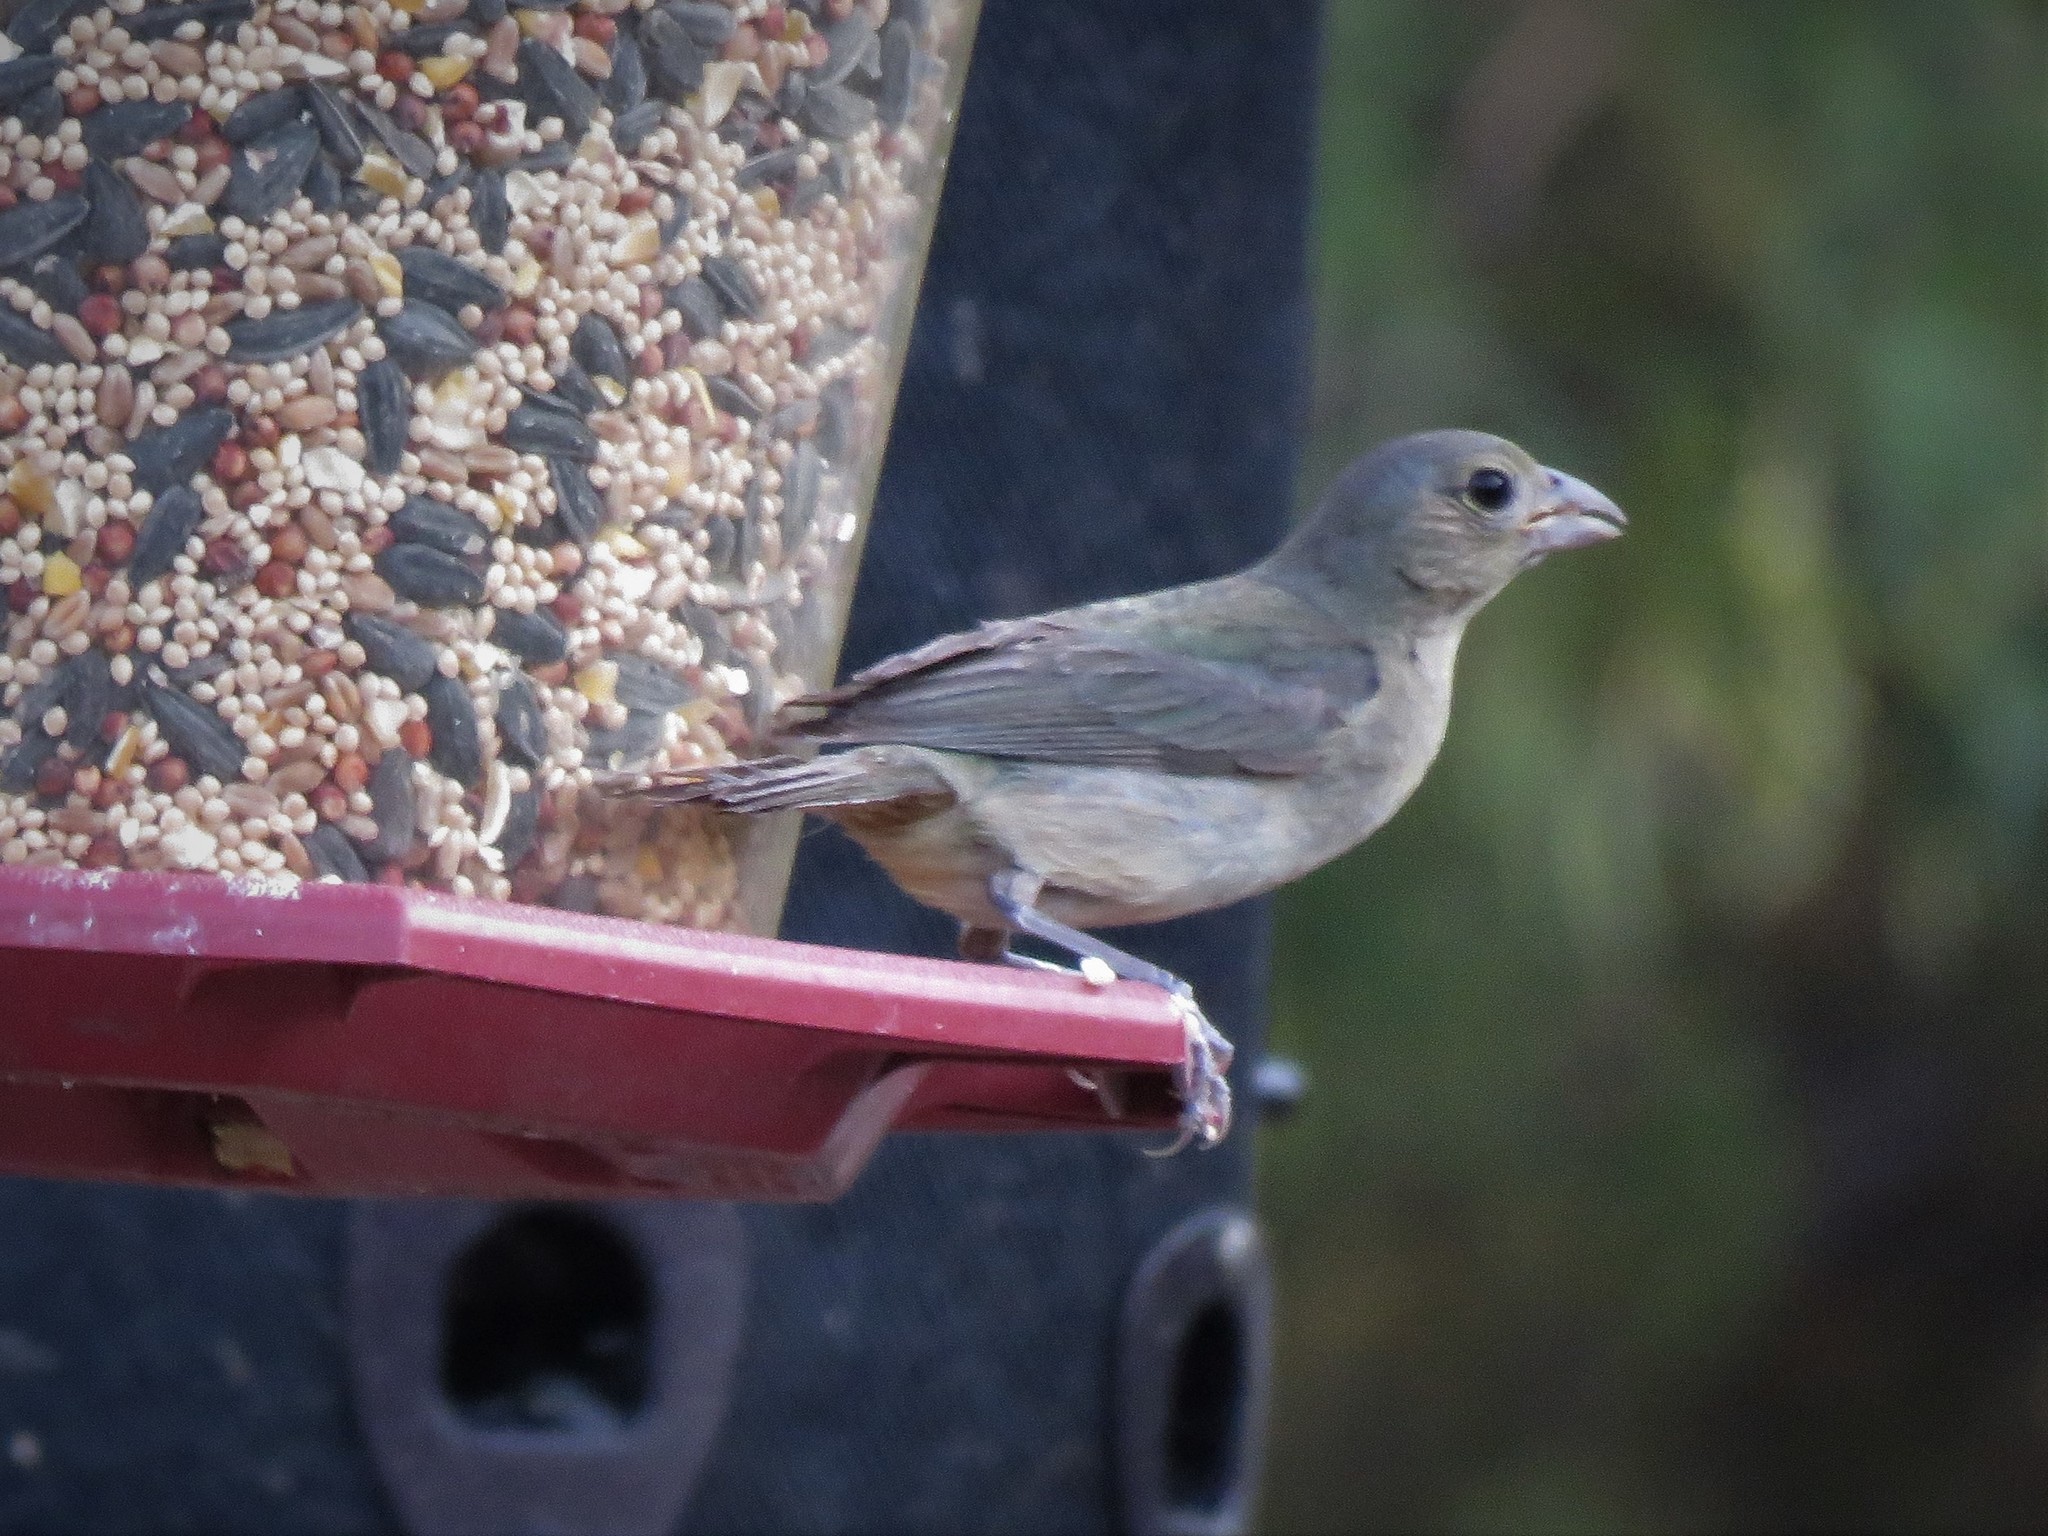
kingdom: Animalia
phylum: Chordata
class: Aves
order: Passeriformes
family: Cardinalidae
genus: Passerina
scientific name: Passerina ciris
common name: Painted bunting
